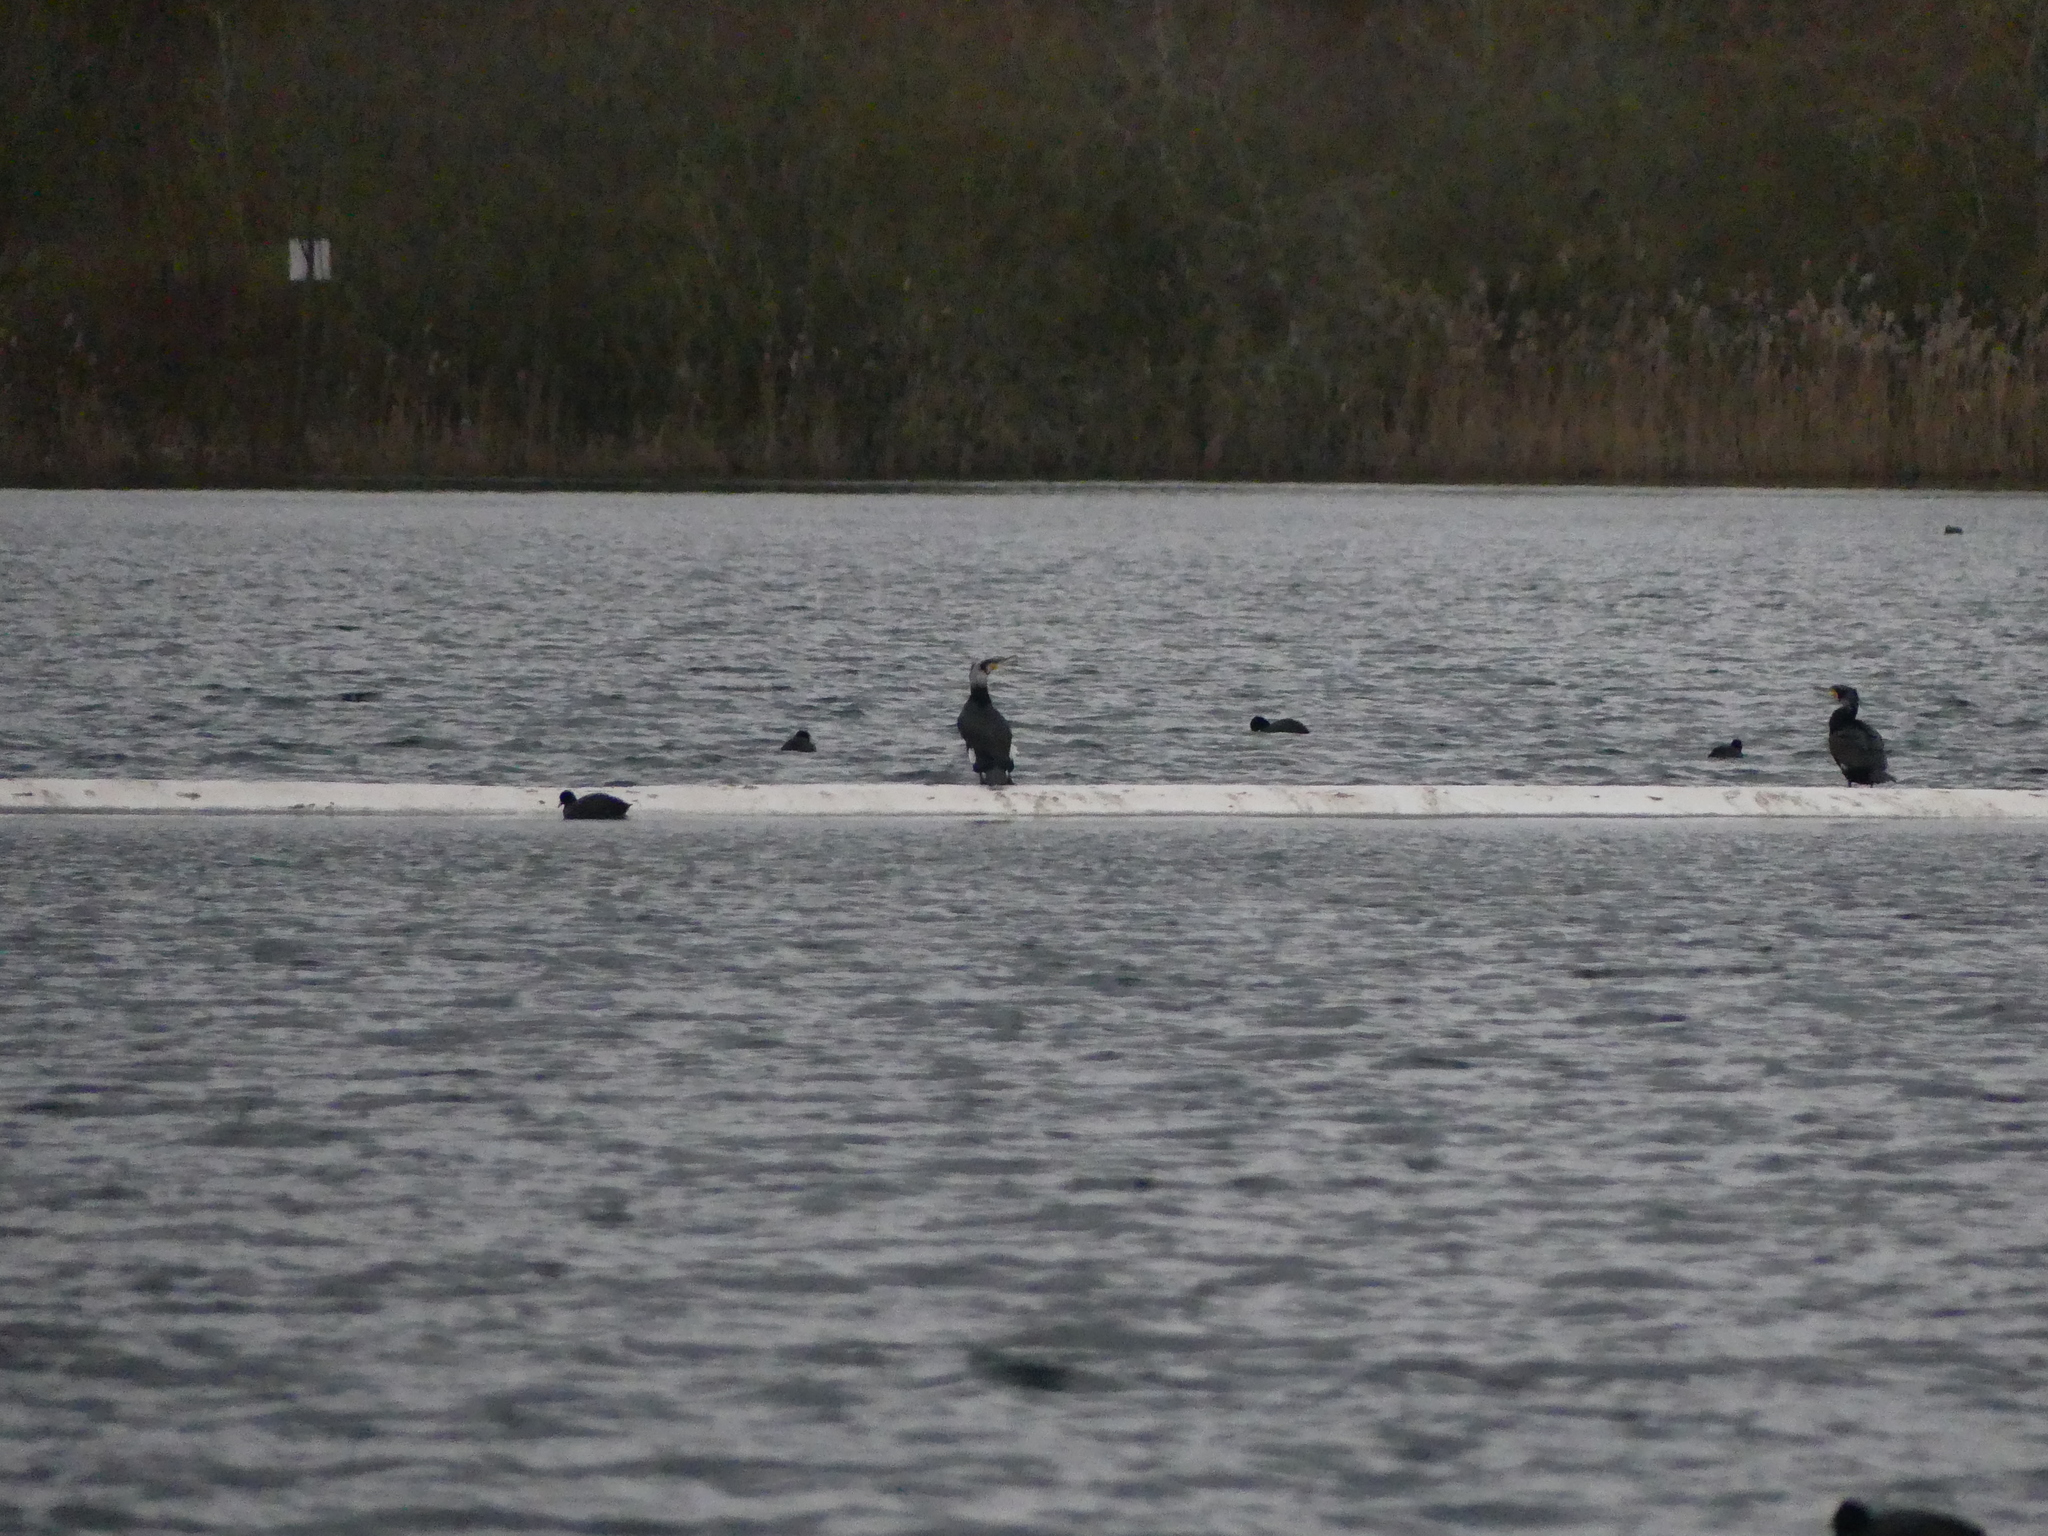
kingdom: Animalia
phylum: Chordata
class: Aves
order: Suliformes
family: Phalacrocoracidae
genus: Phalacrocorax
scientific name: Phalacrocorax carbo
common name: Great cormorant
